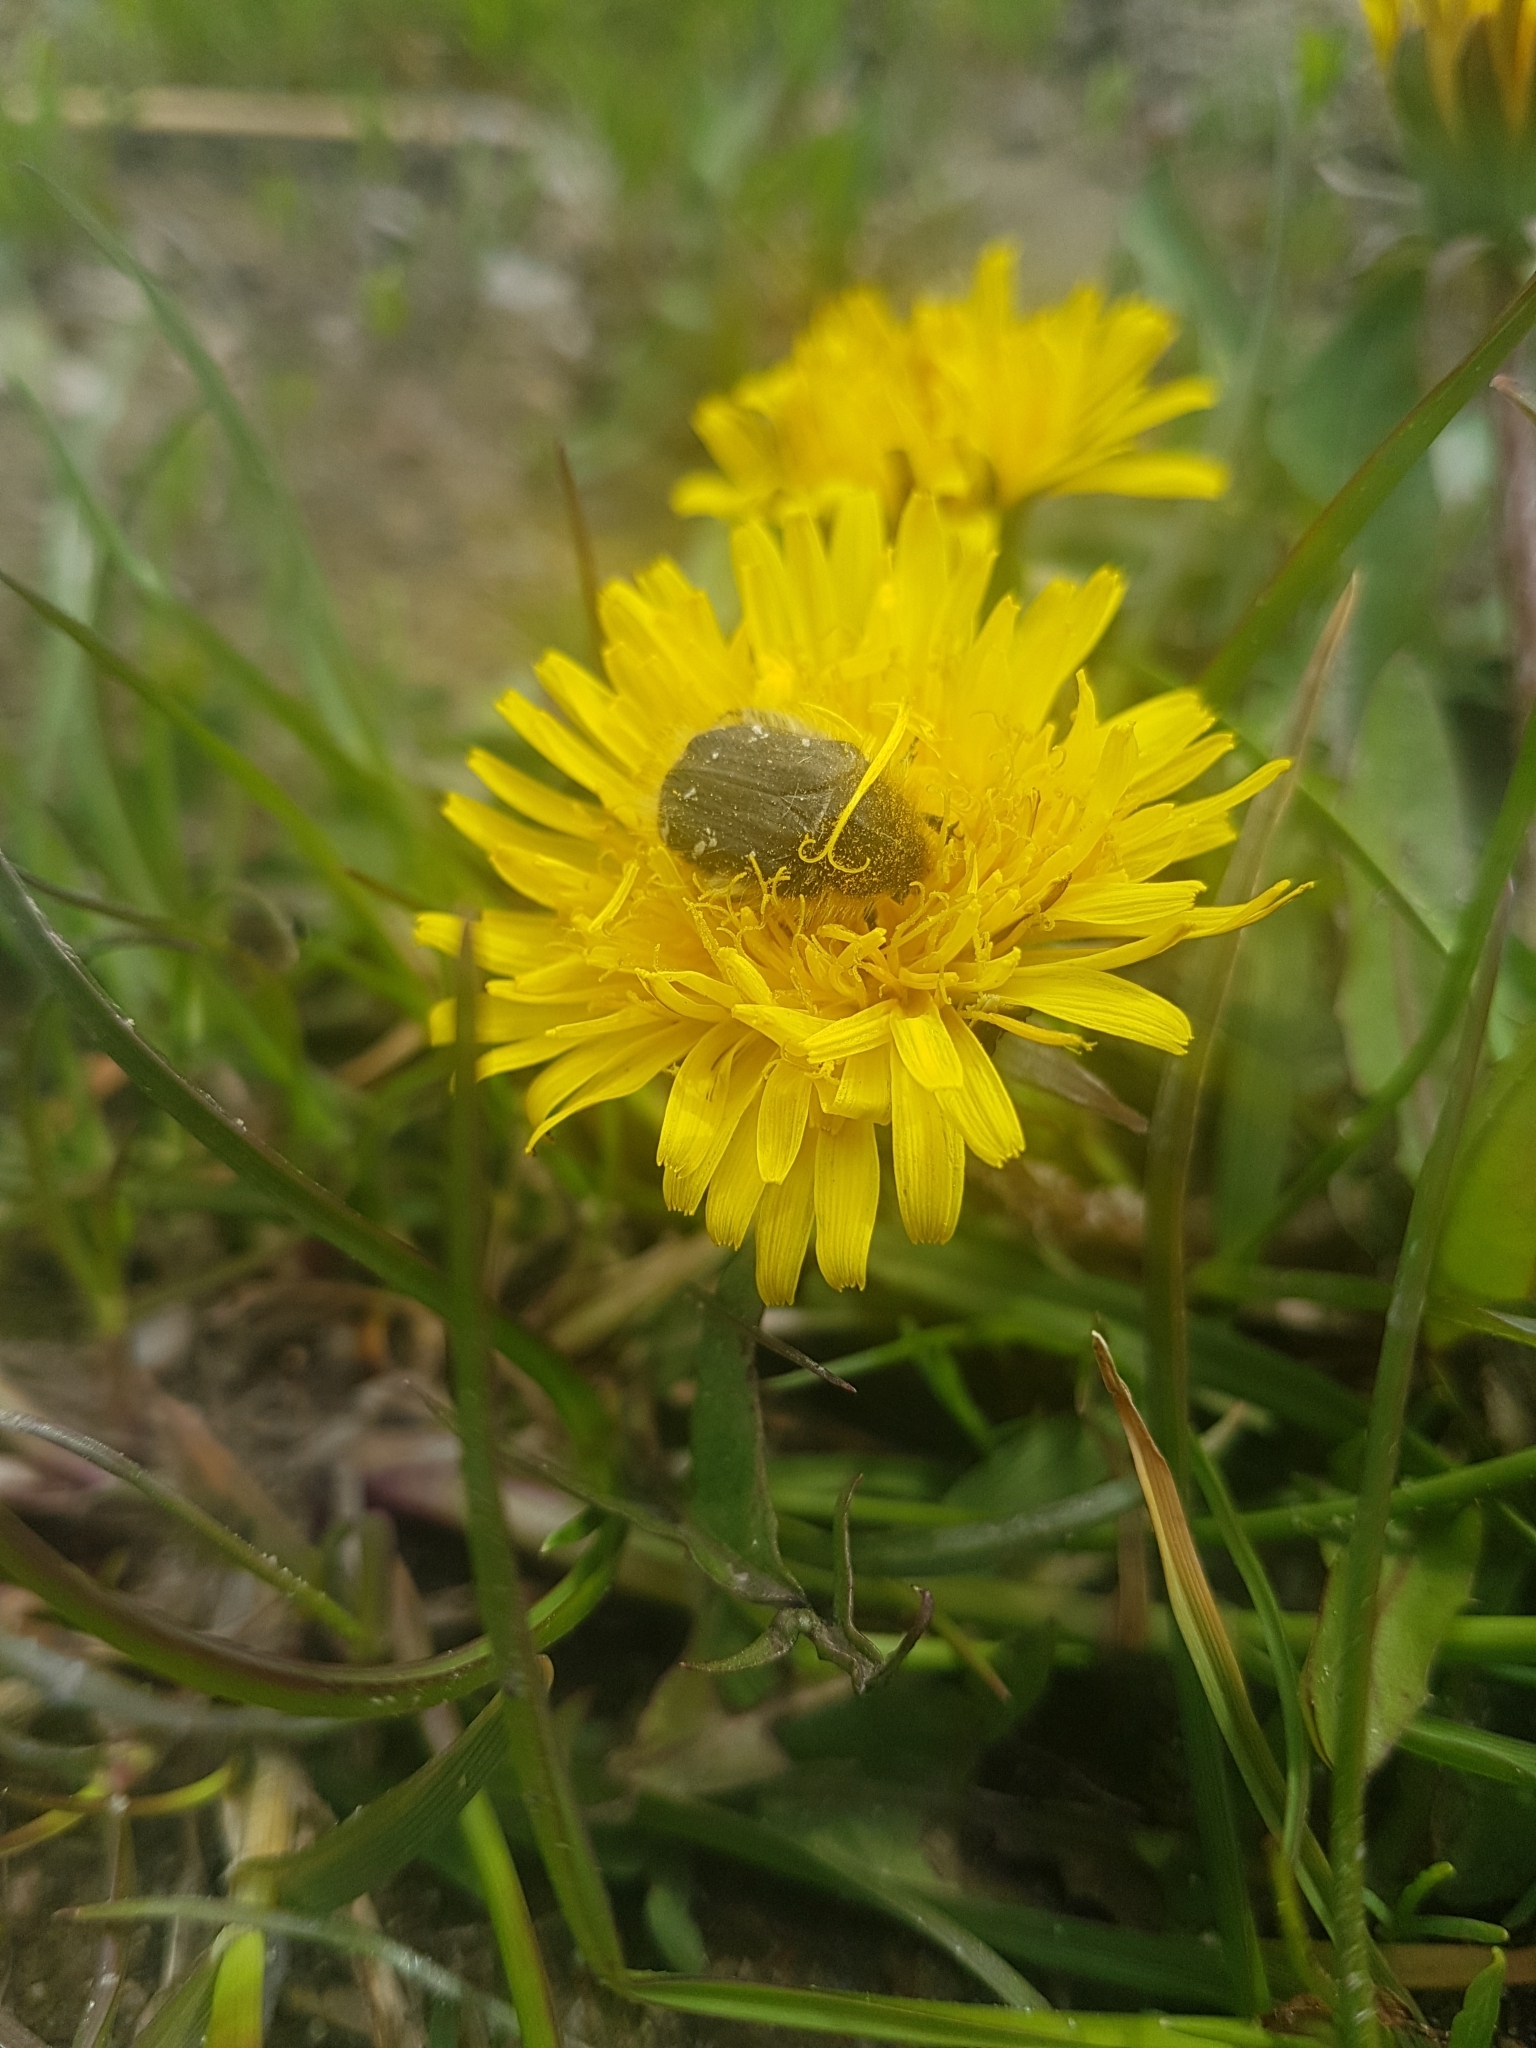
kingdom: Animalia
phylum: Arthropoda
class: Insecta
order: Coleoptera
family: Scarabaeidae
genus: Tropinota
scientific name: Tropinota hirta
